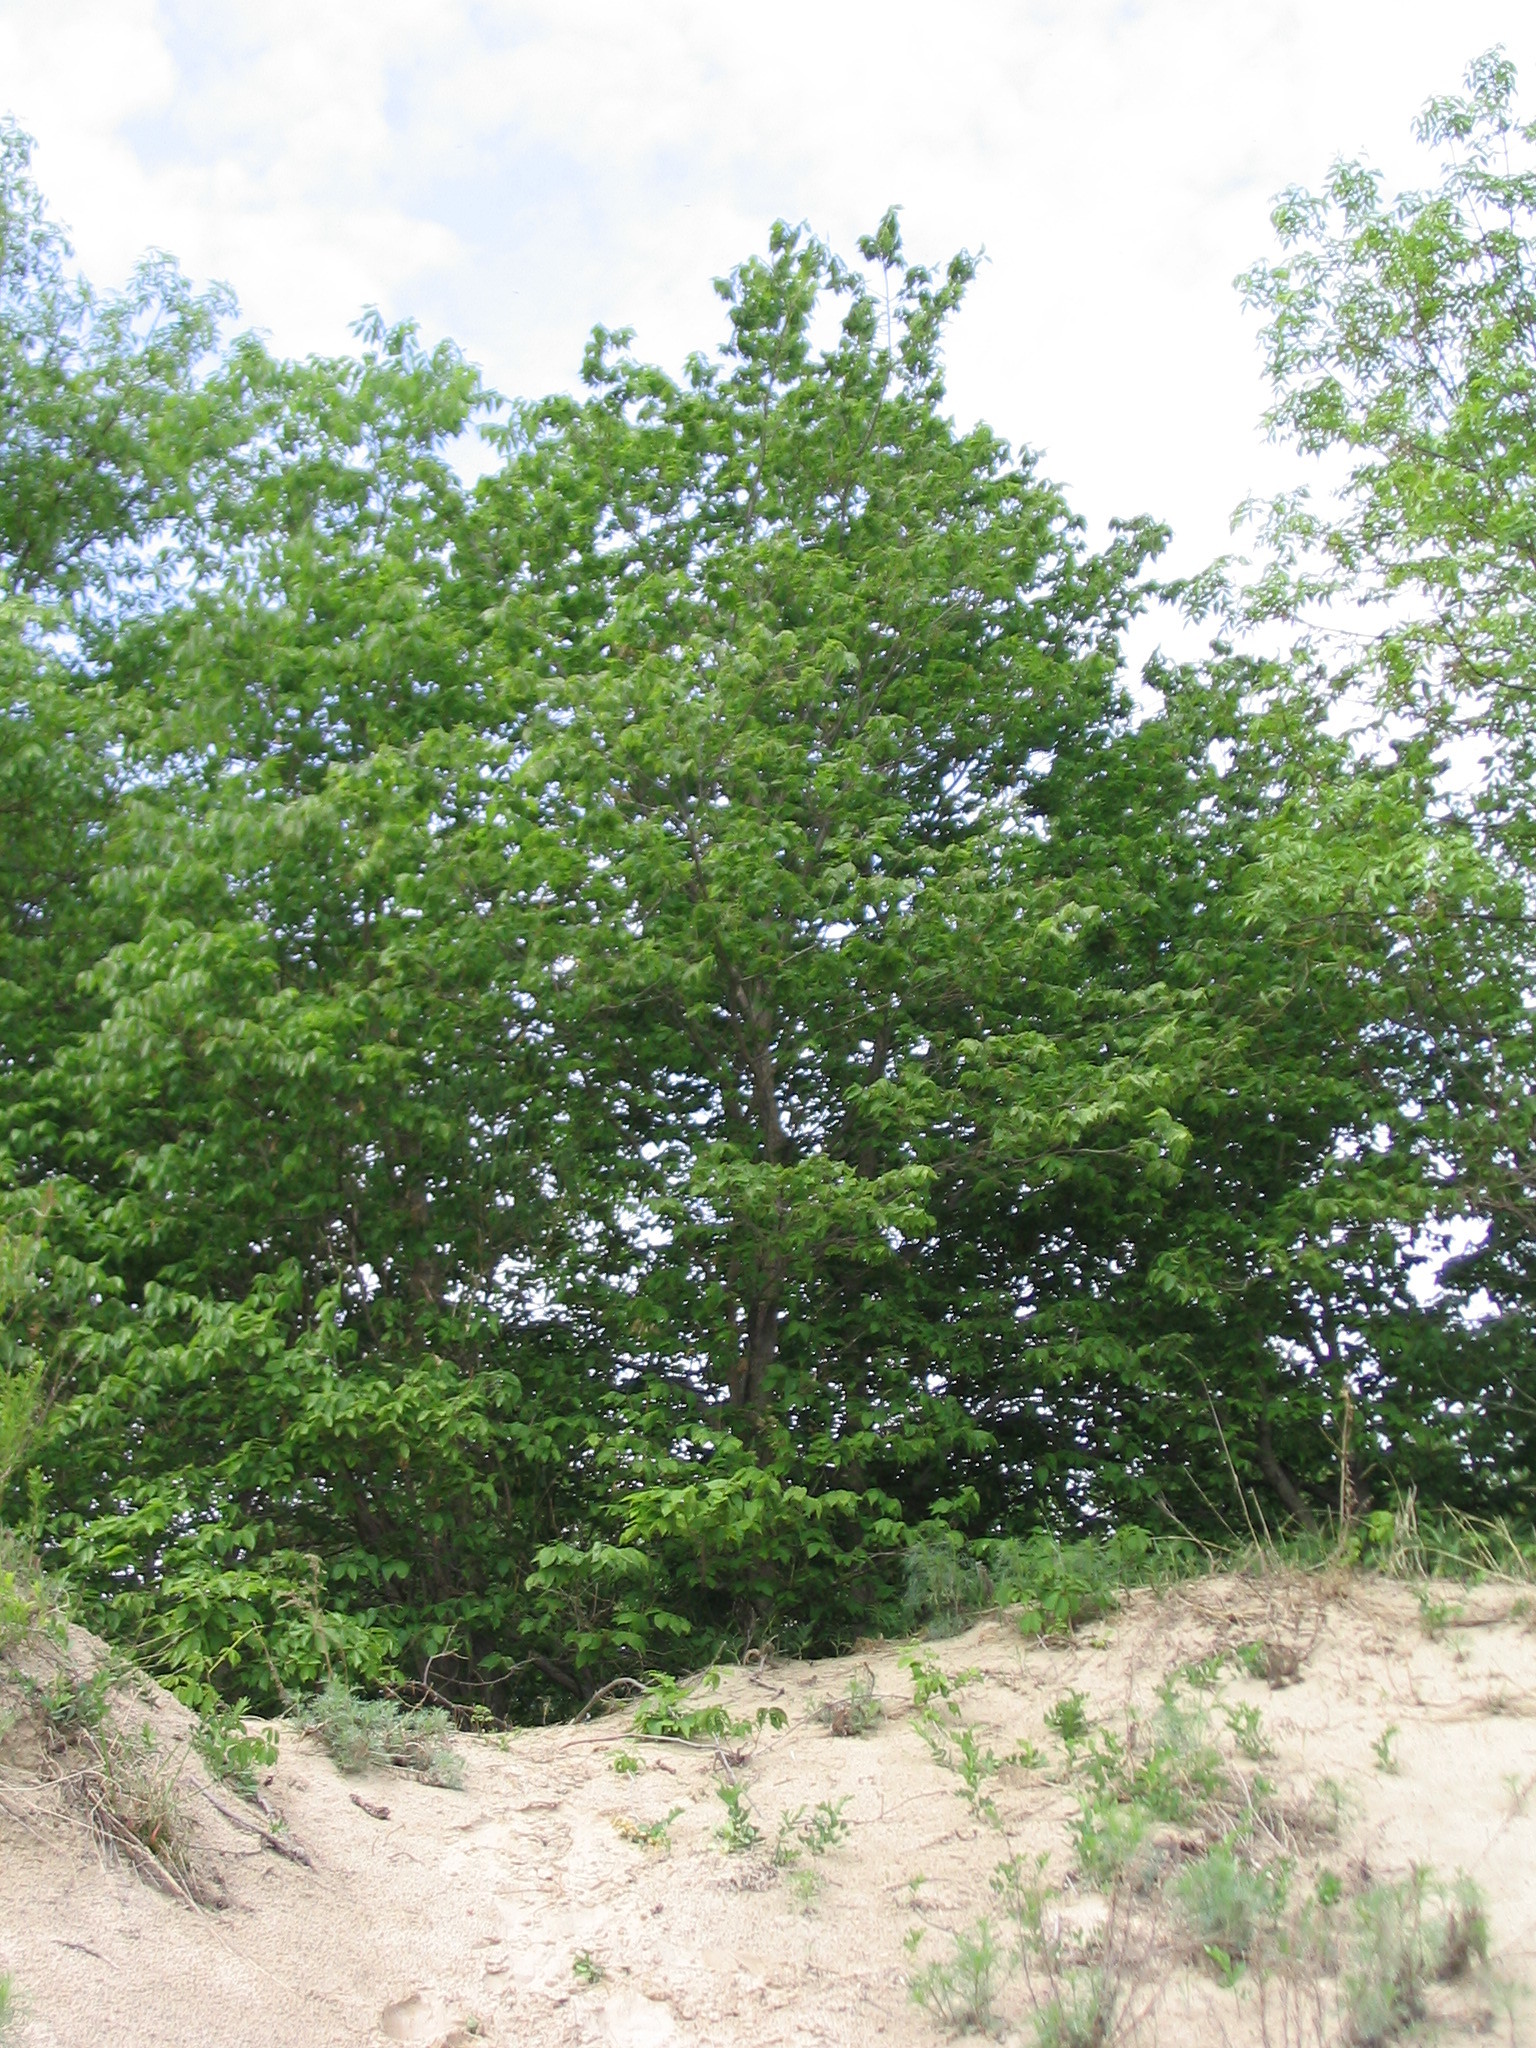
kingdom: Plantae
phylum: Tracheophyta
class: Magnoliopsida
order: Rosales
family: Cannabaceae
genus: Celtis
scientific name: Celtis occidentalis
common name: Common hackberry
